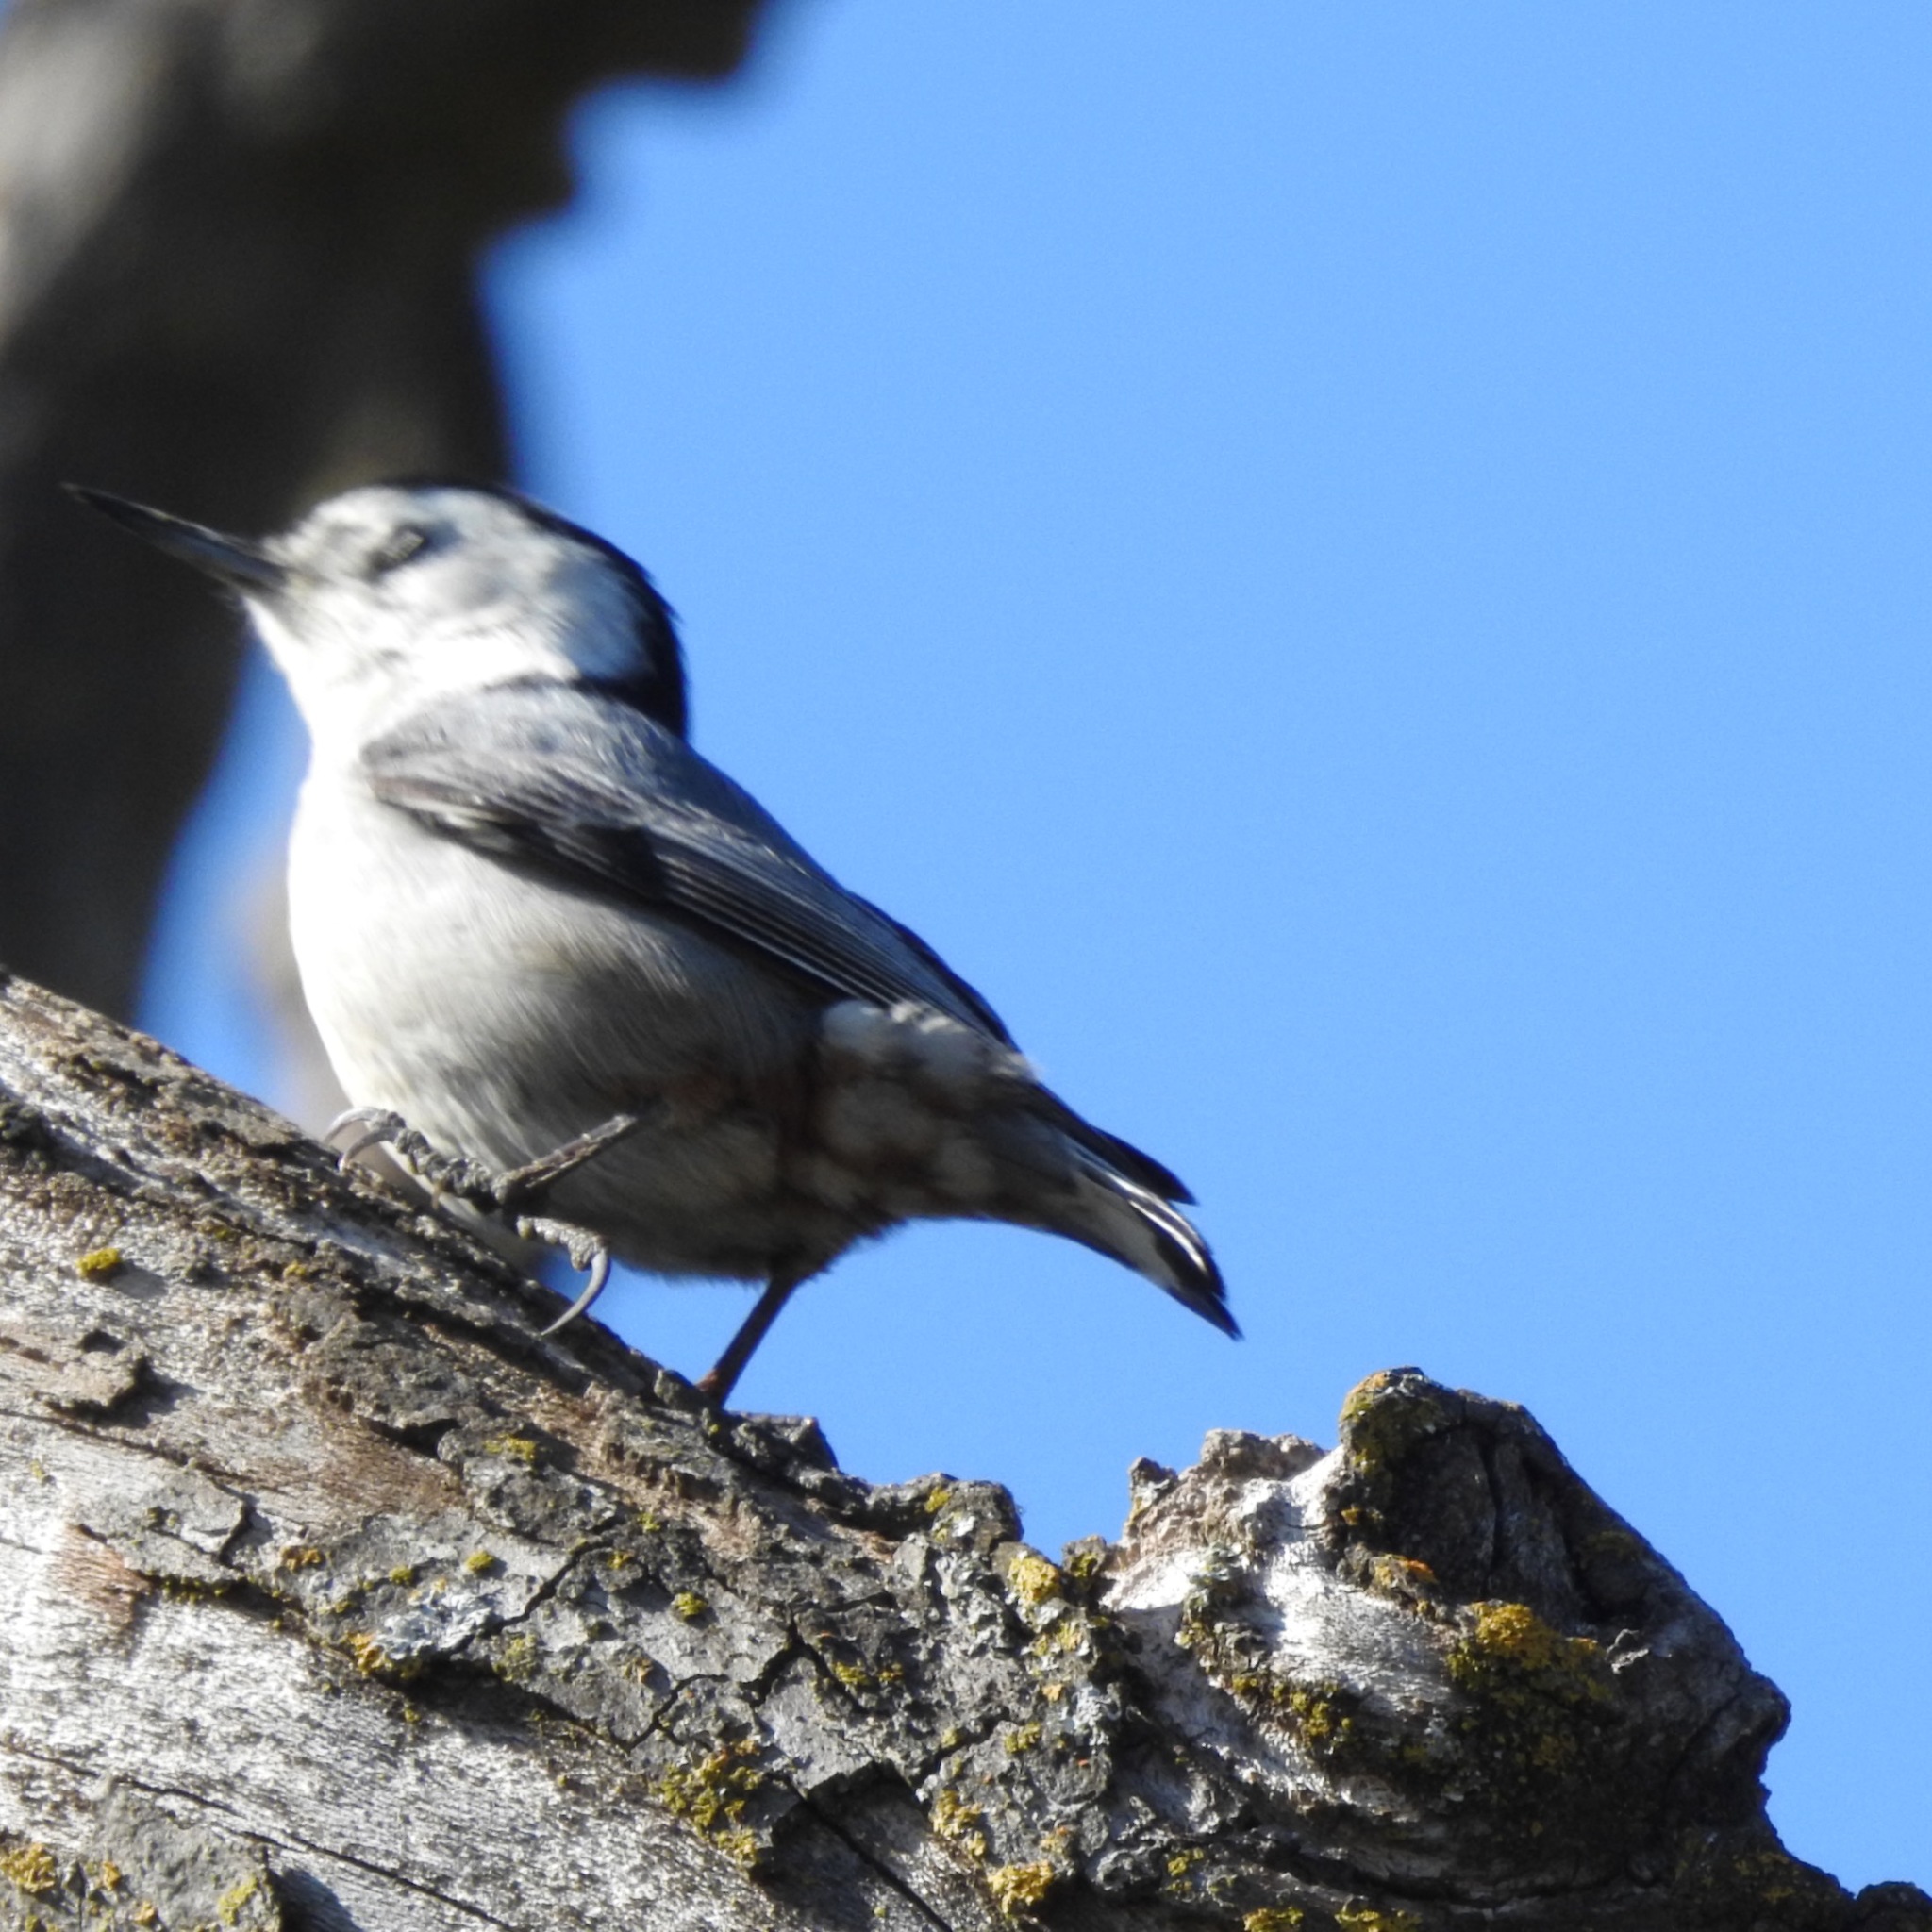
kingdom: Animalia
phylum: Chordata
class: Aves
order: Passeriformes
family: Sittidae
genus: Sitta
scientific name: Sitta carolinensis
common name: White-breasted nuthatch
